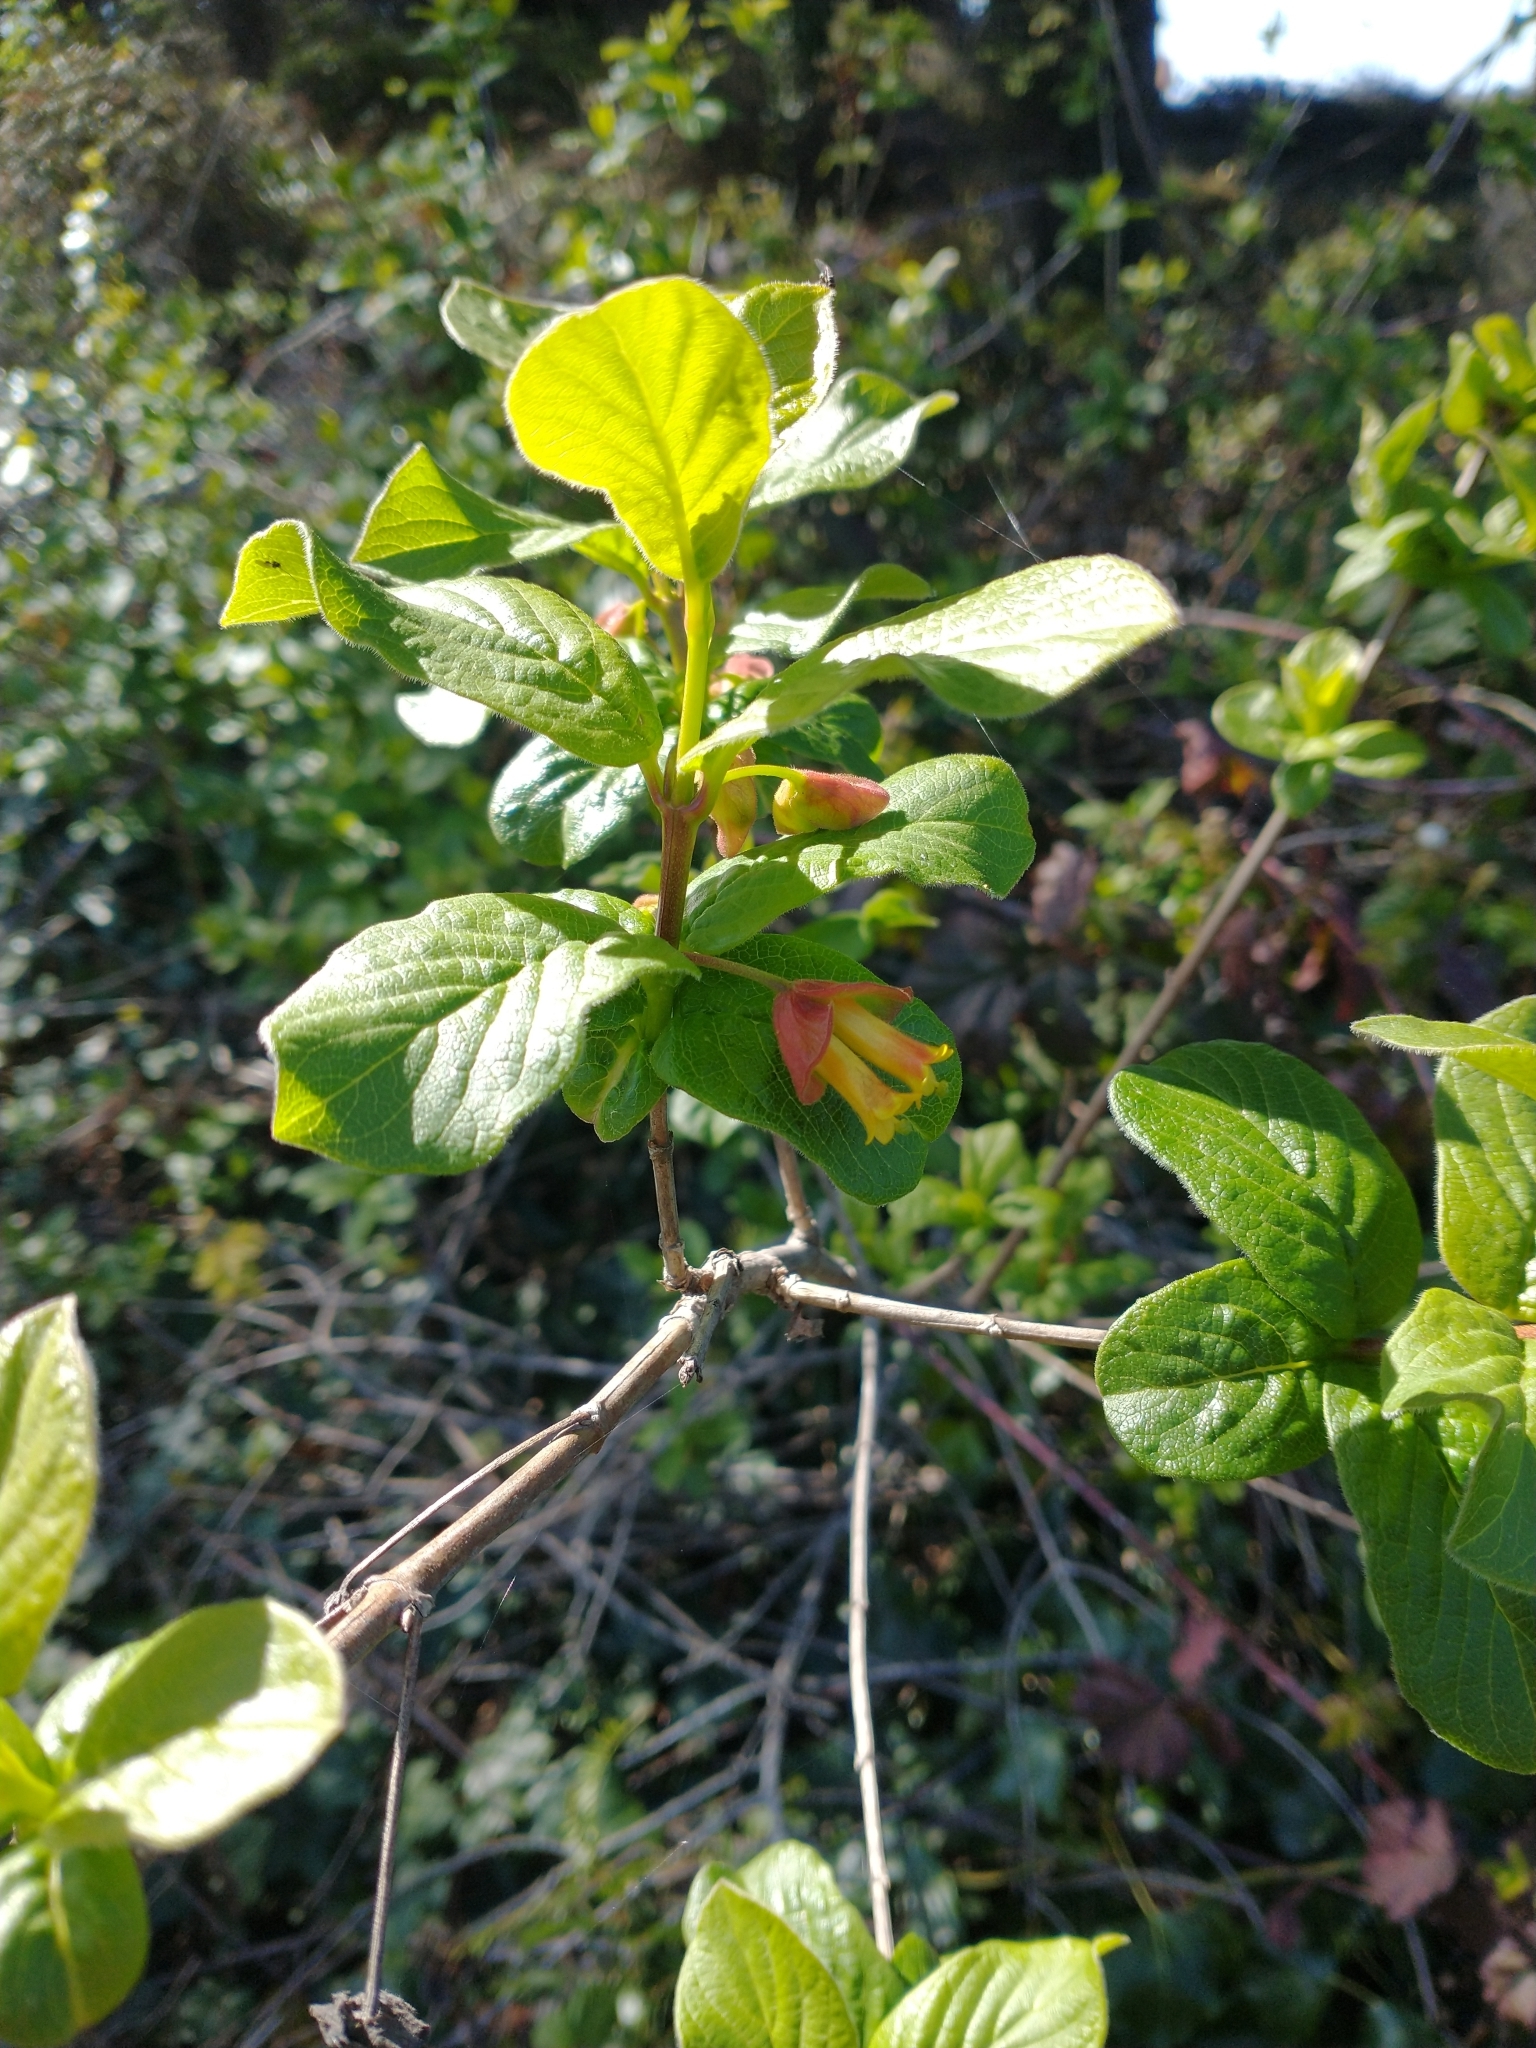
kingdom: Plantae
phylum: Tracheophyta
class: Magnoliopsida
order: Dipsacales
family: Caprifoliaceae
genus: Lonicera
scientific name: Lonicera involucrata
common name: Californian honeysuckle
